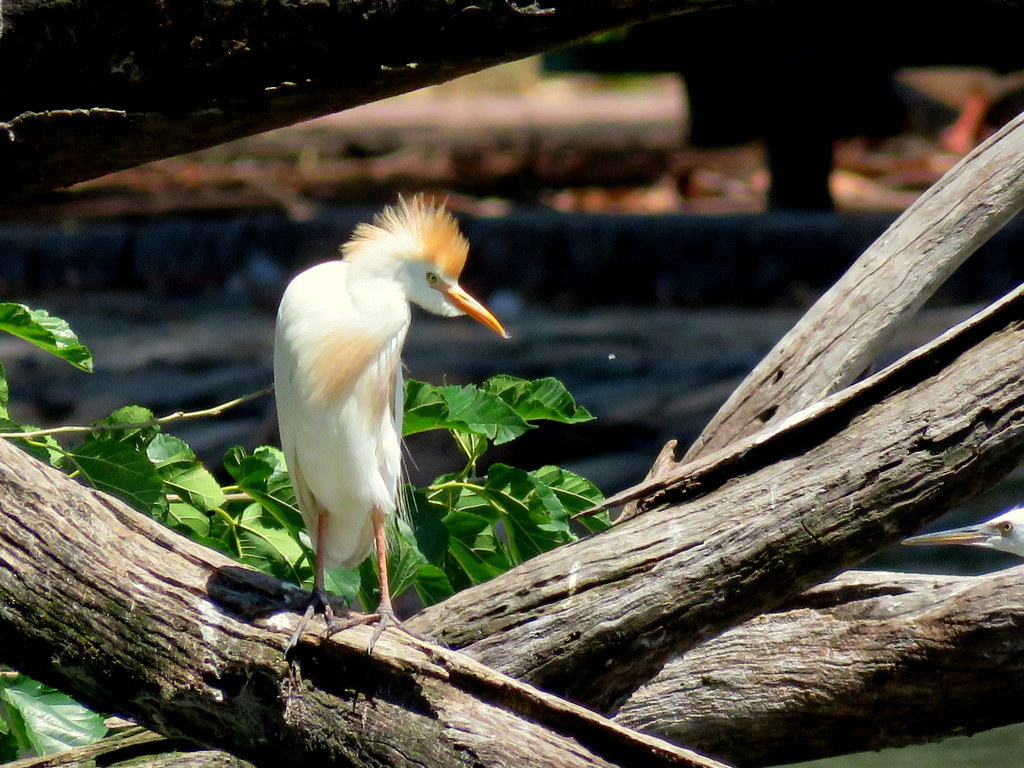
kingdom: Animalia
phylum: Chordata
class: Aves
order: Pelecaniformes
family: Ardeidae
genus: Bubulcus
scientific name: Bubulcus ibis
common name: Cattle egret
